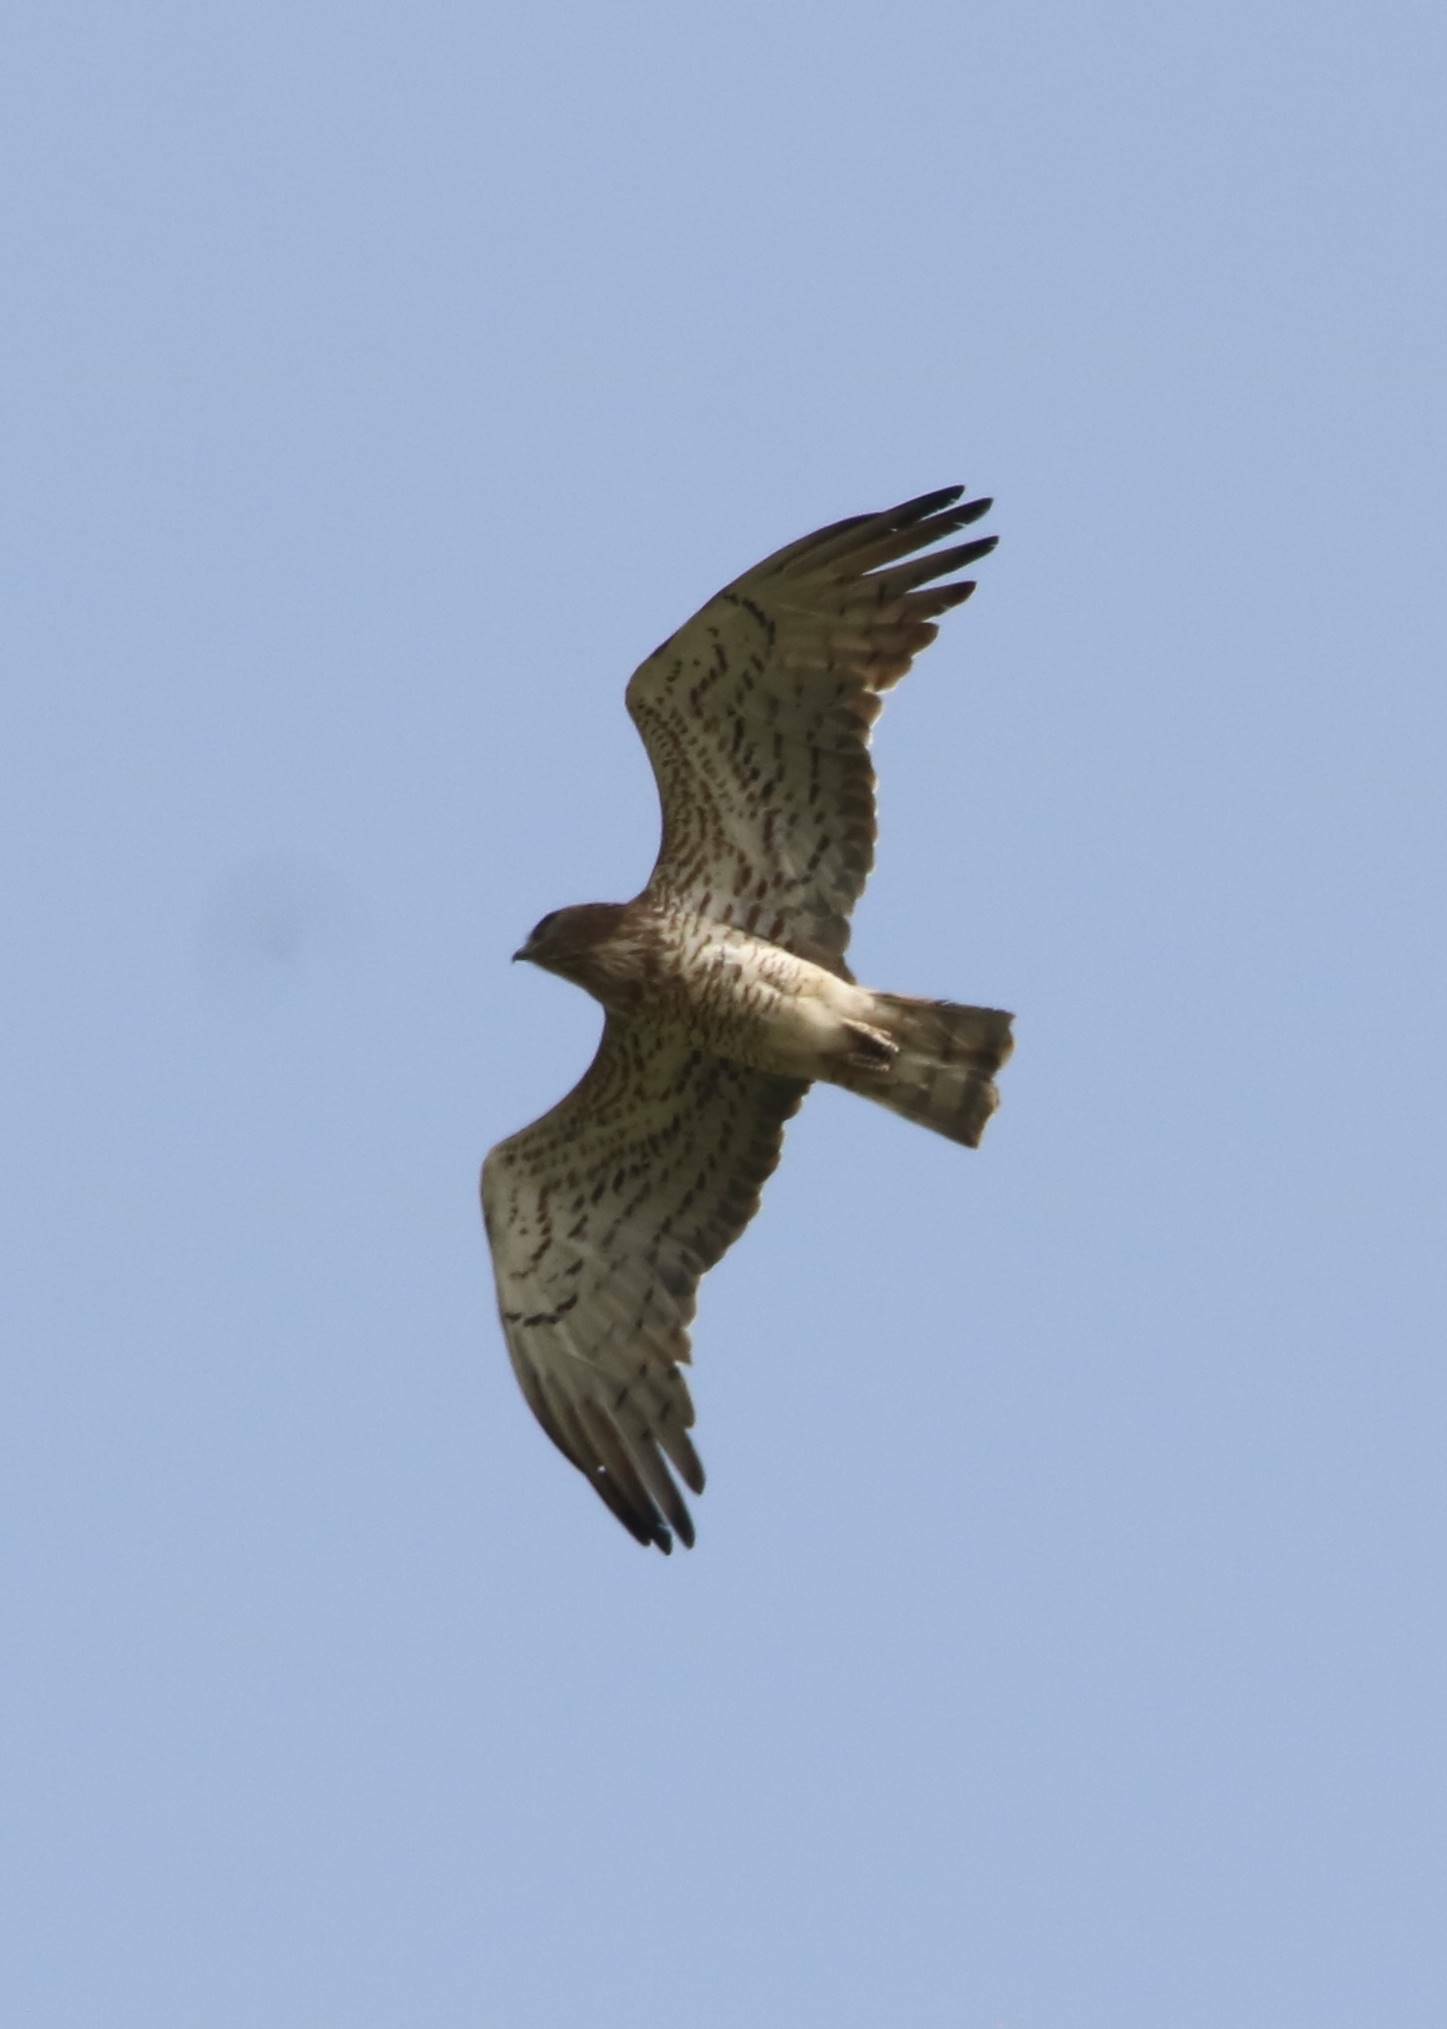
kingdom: Animalia
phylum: Chordata
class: Aves
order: Accipitriformes
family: Accipitridae
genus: Circaetus
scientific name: Circaetus gallicus
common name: Short-toed snake eagle
